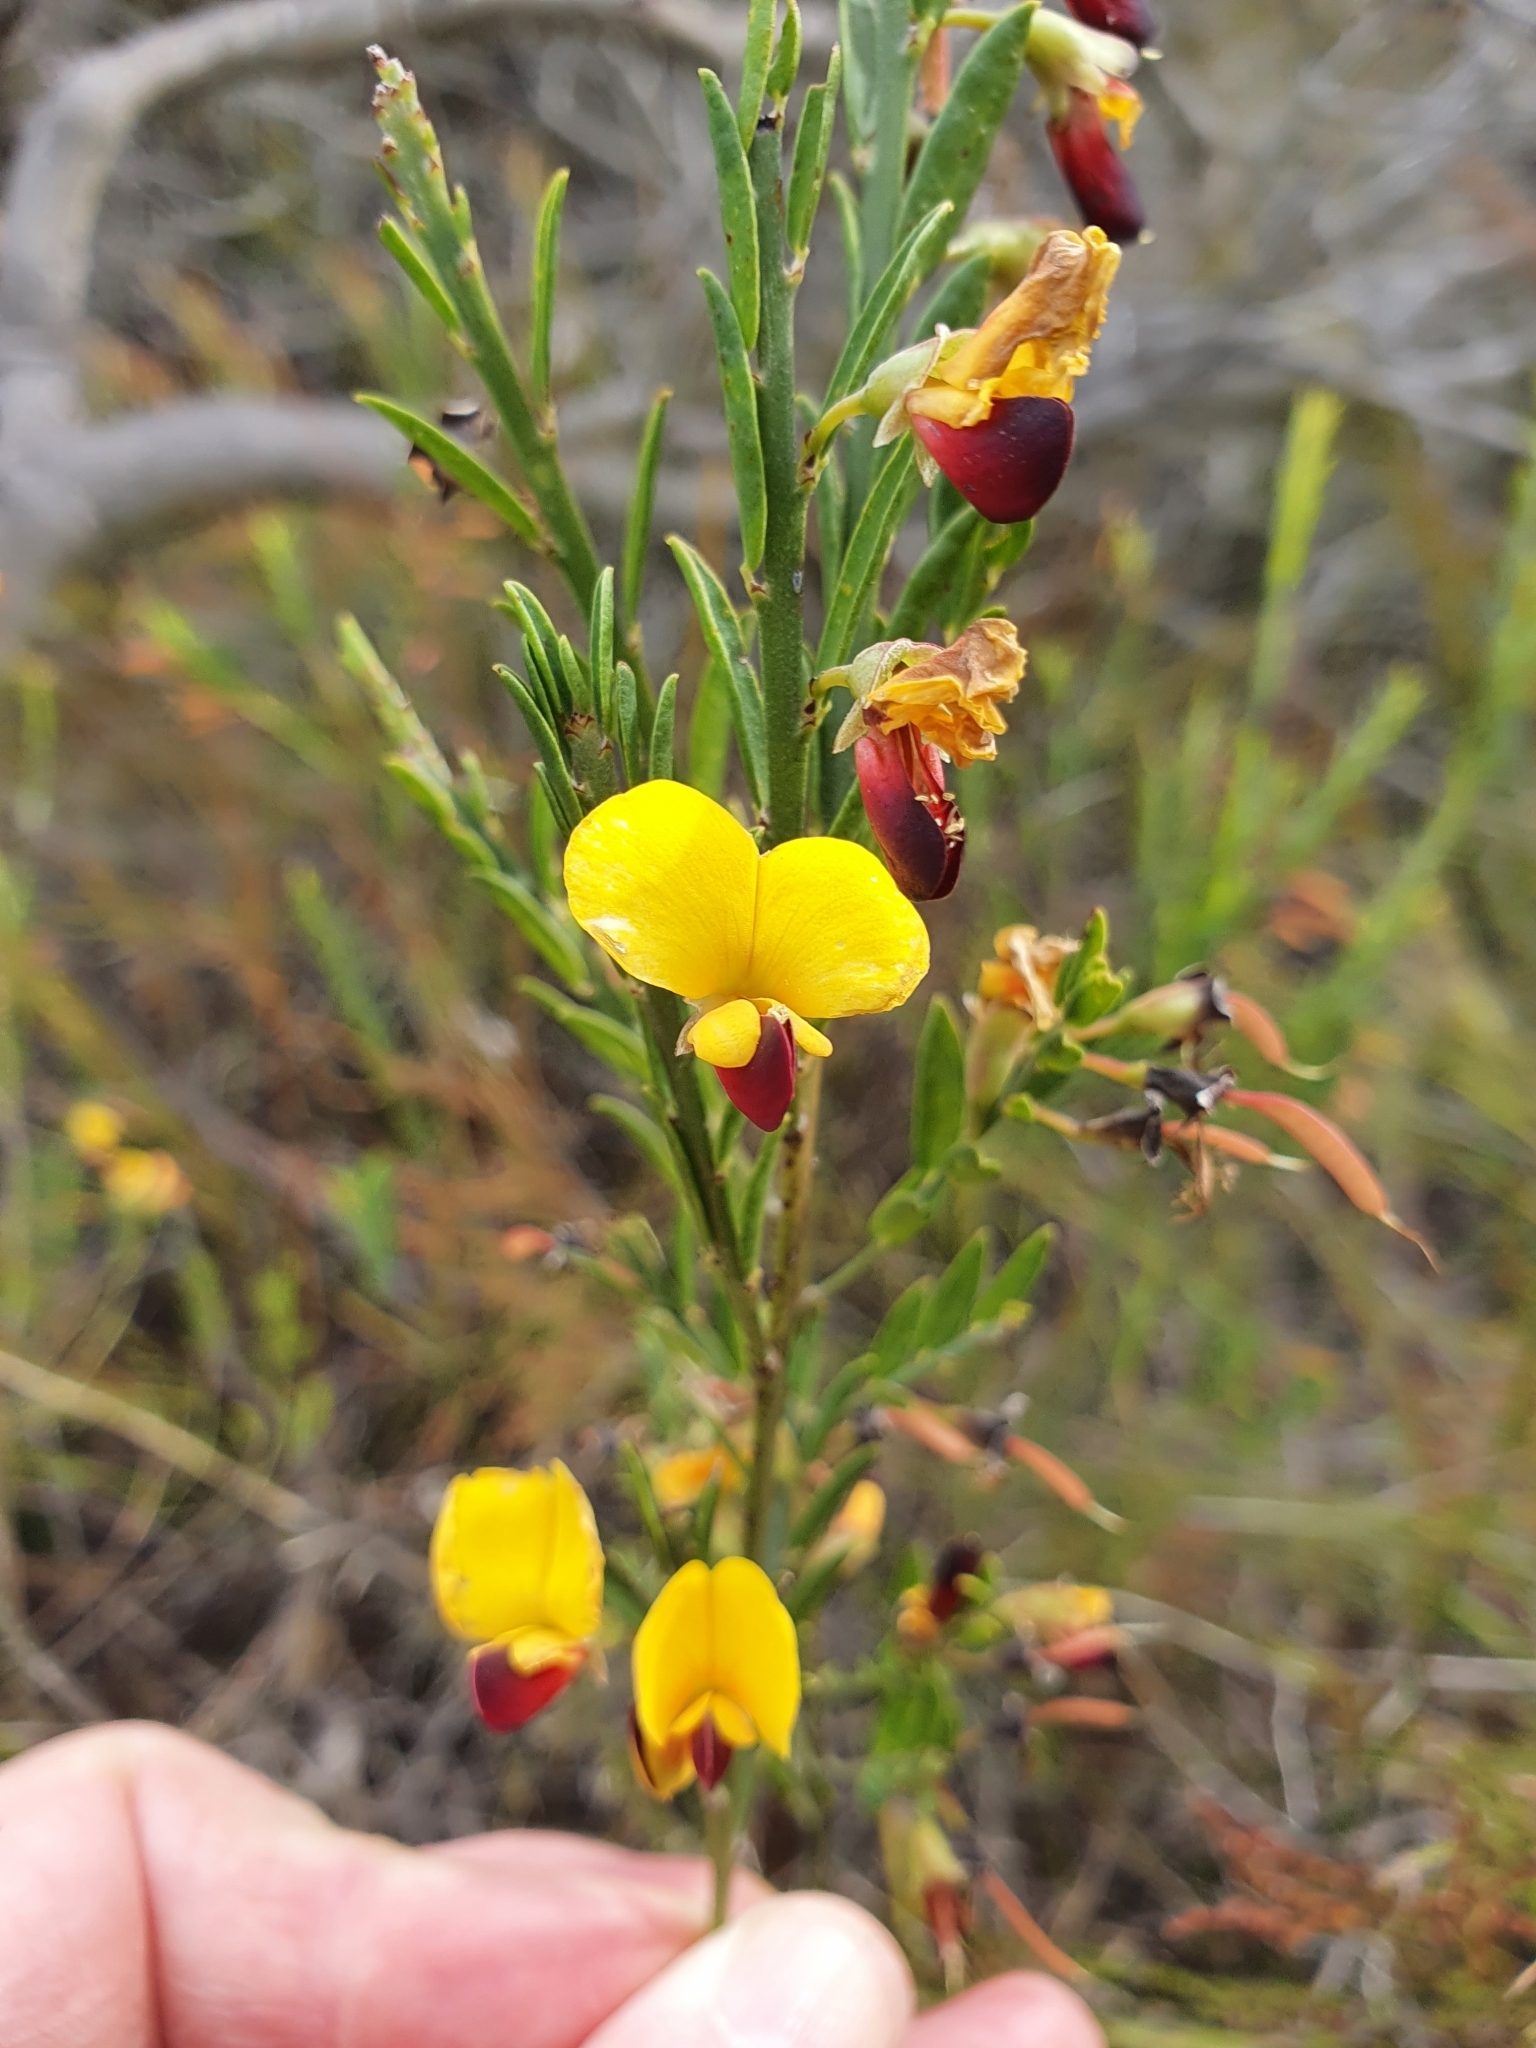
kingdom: Plantae
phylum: Tracheophyta
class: Magnoliopsida
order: Fabales
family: Fabaceae
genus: Bossiaea
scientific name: Bossiaea heterophylla
